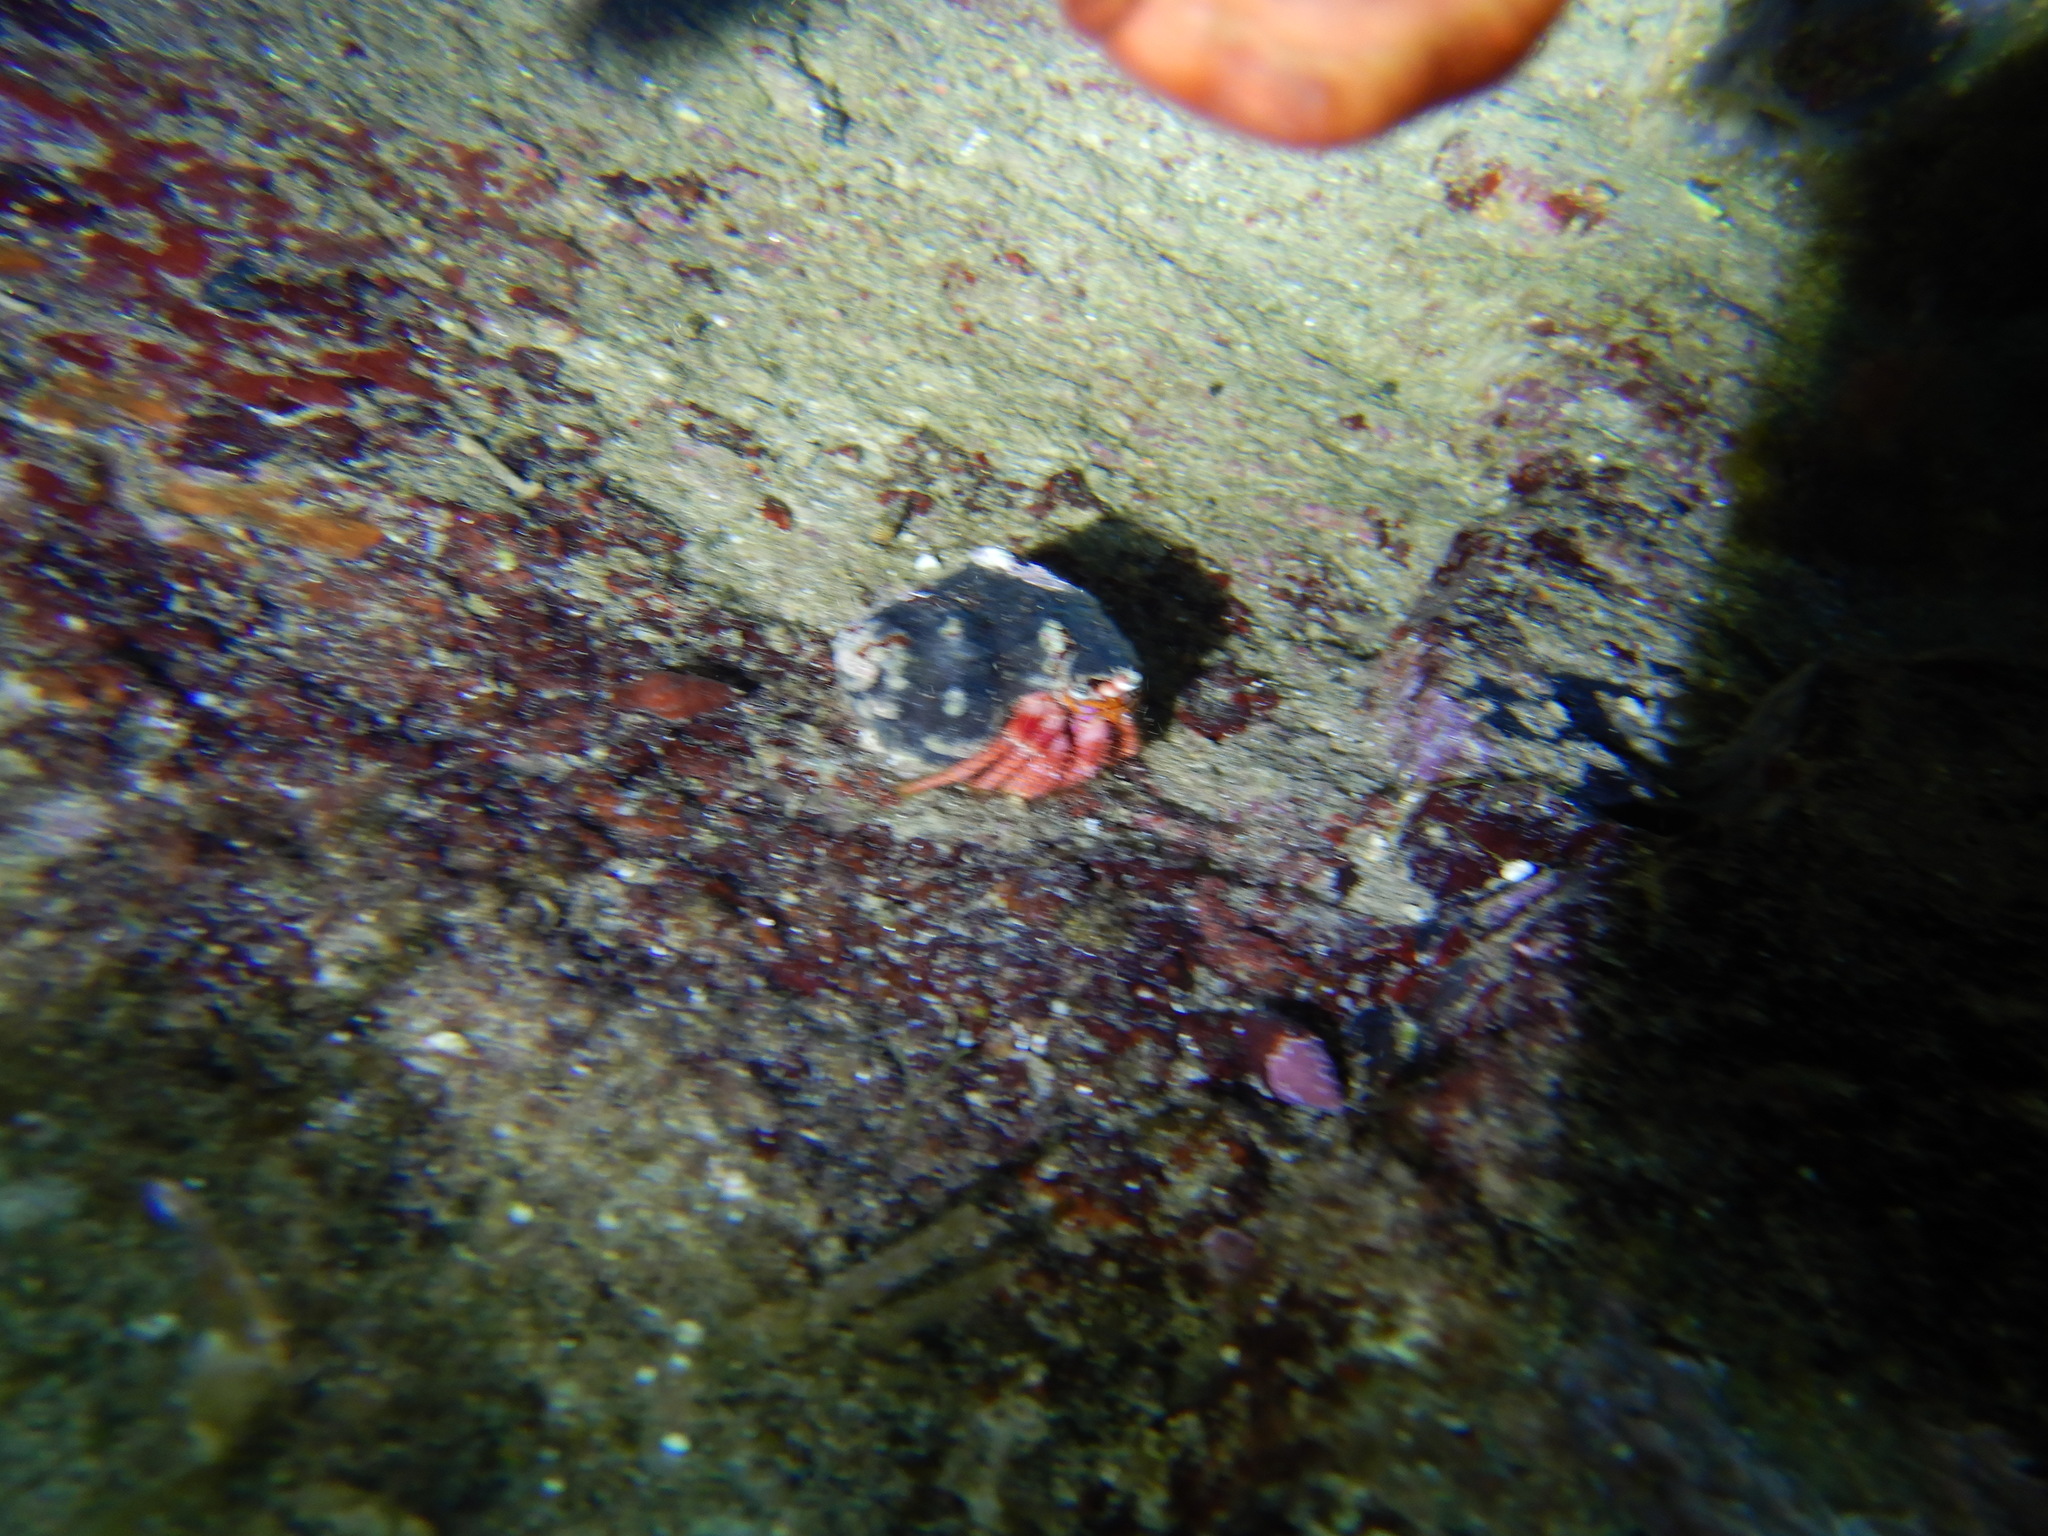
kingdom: Animalia
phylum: Arthropoda
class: Malacostraca
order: Decapoda
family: Diogenidae
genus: Dardanus
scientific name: Dardanus calidus
